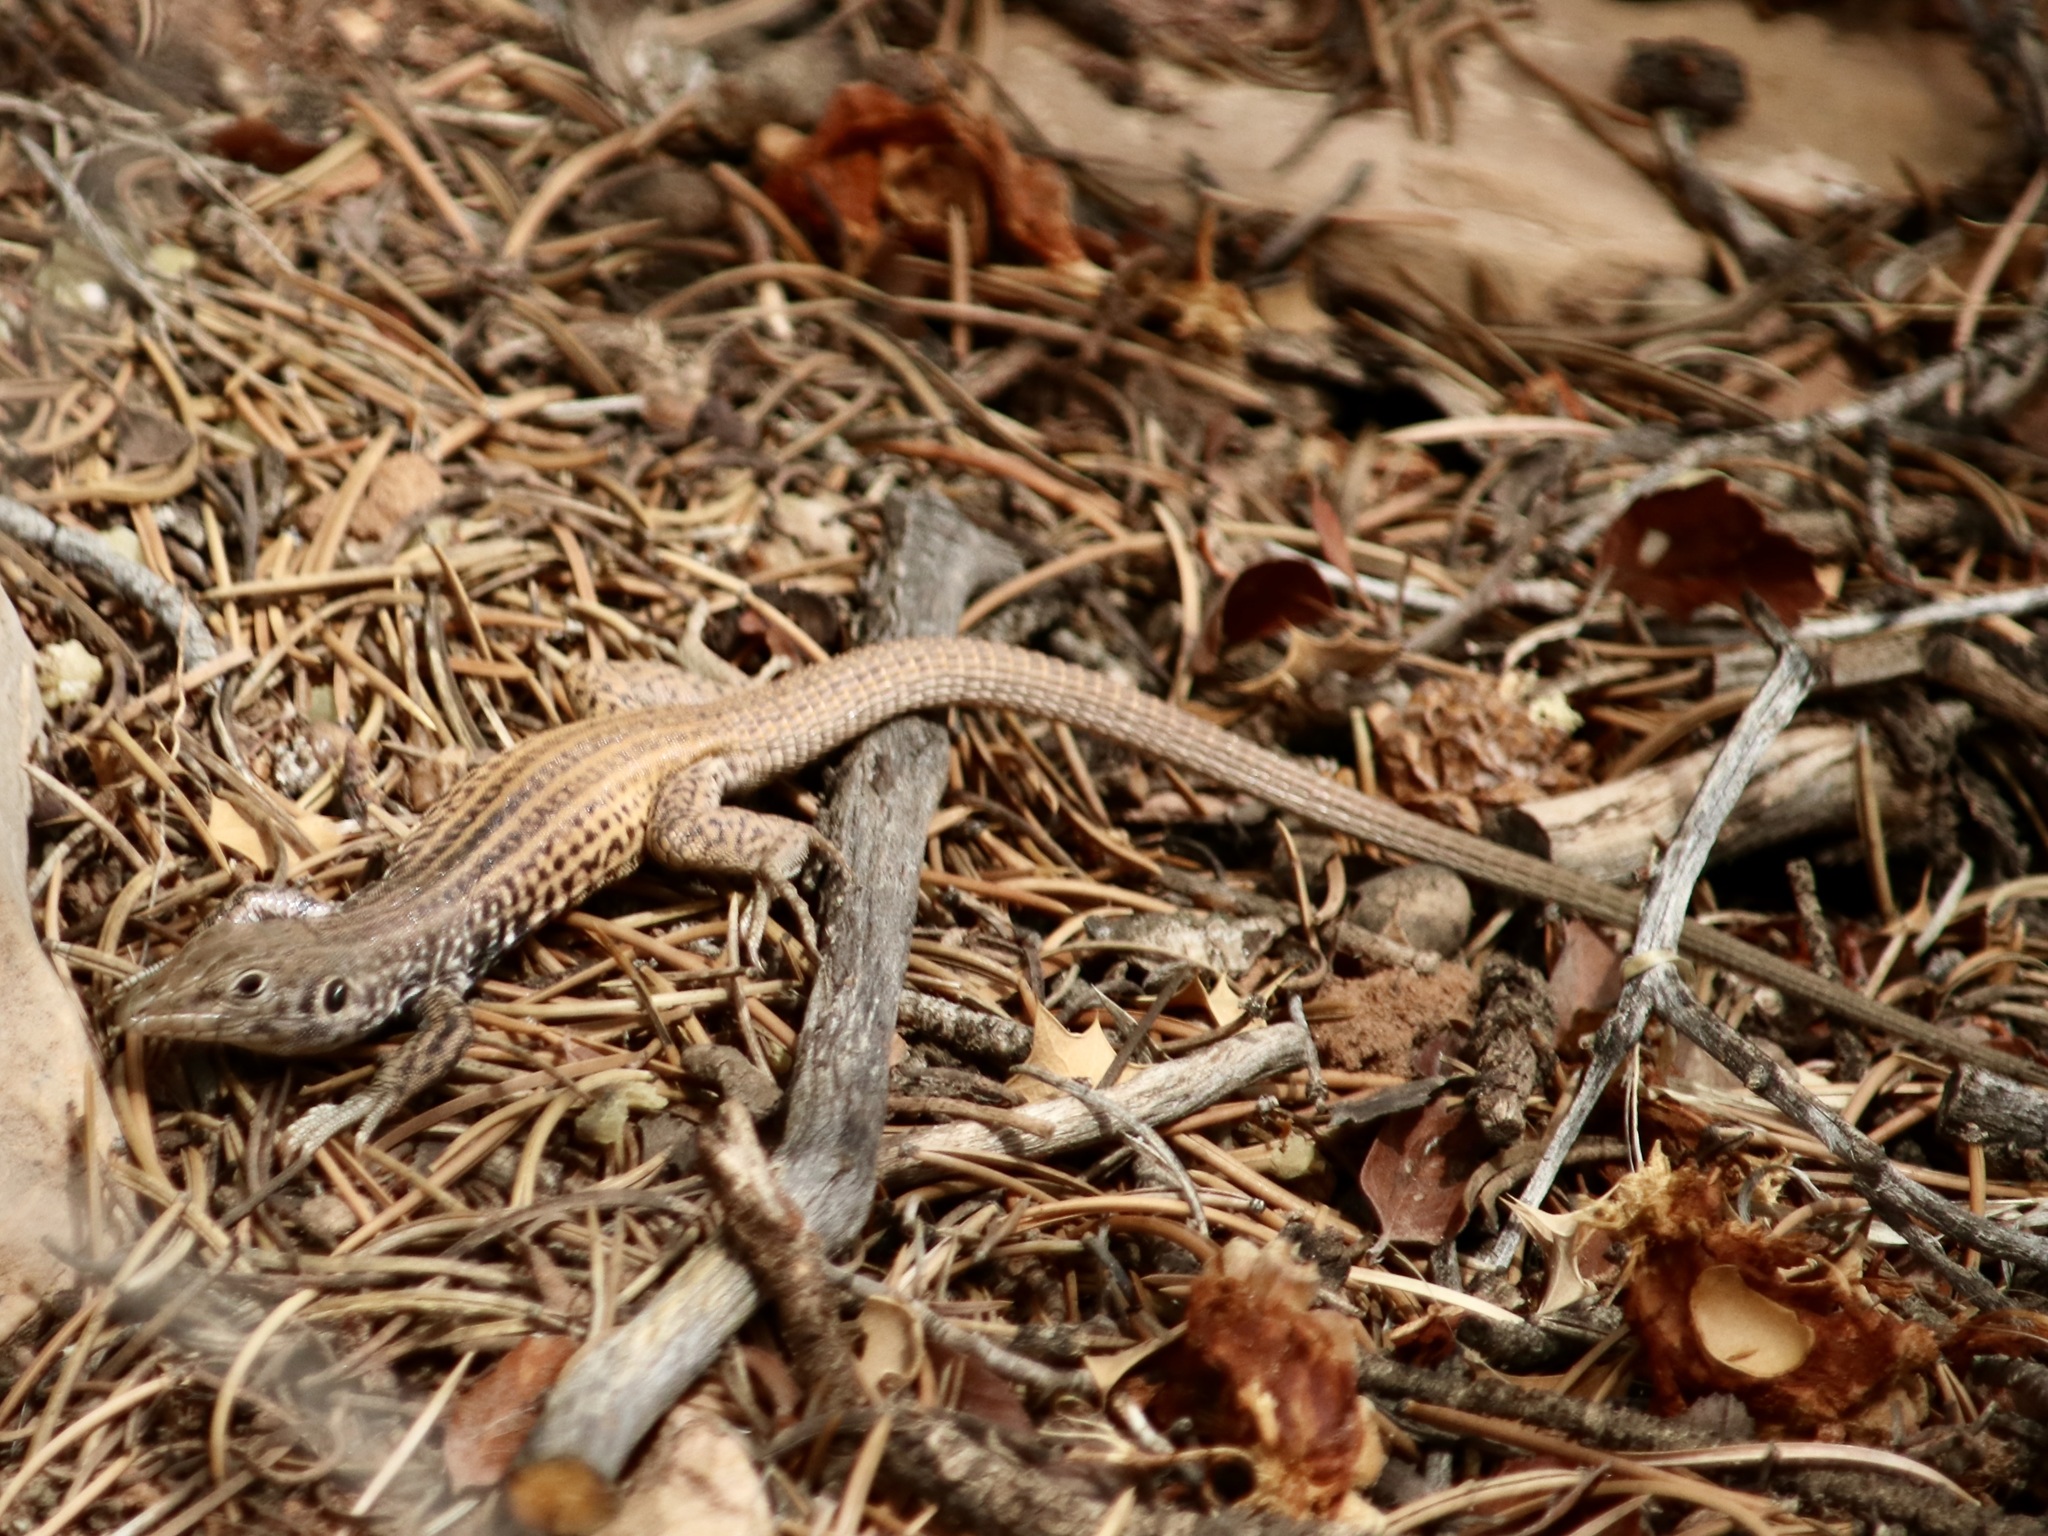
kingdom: Animalia
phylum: Chordata
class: Squamata
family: Teiidae
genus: Aspidoscelis
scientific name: Aspidoscelis tigris
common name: Tiger whiptail
